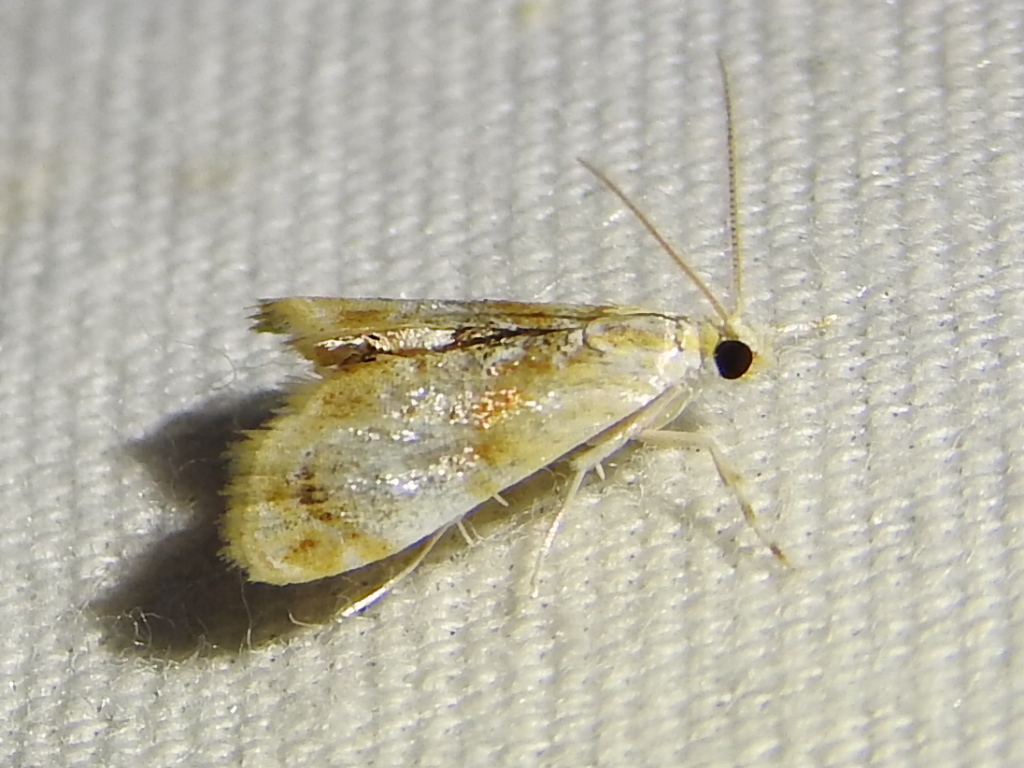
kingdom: Animalia
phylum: Arthropoda
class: Insecta
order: Lepidoptera
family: Crambidae
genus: Dicymolomia
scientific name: Dicymolomia julianalis
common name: Julia's dicymolomia moth
